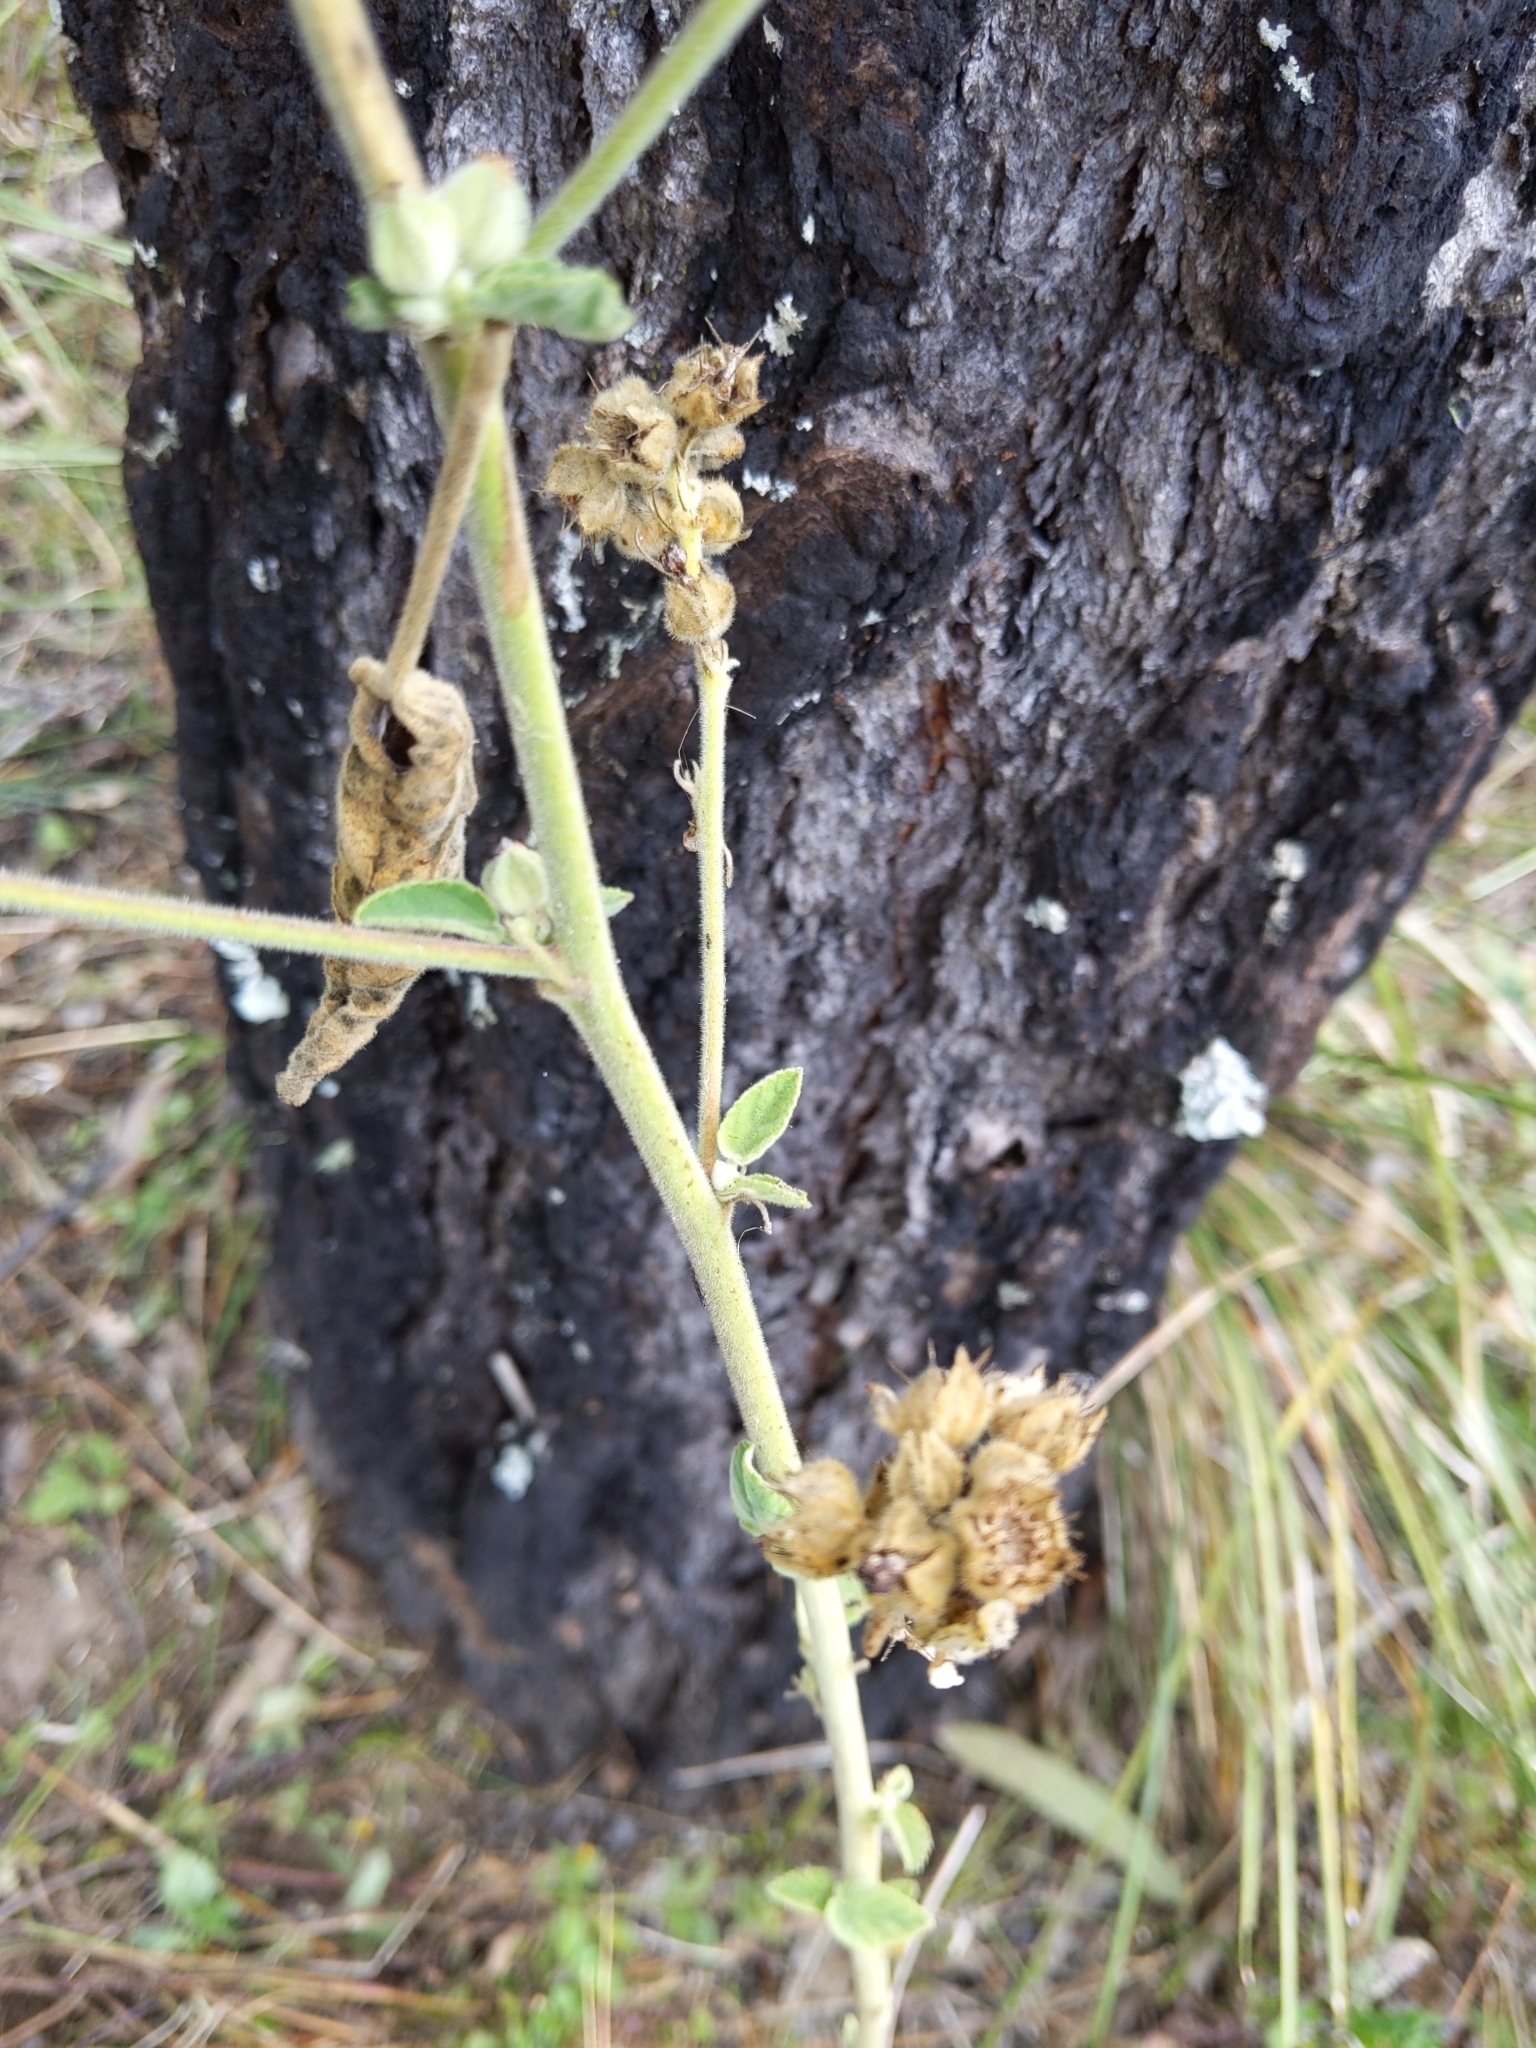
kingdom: Plantae
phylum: Tracheophyta
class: Magnoliopsida
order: Malvales
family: Malvaceae
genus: Sida
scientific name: Sida cordifolia
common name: Ilima
